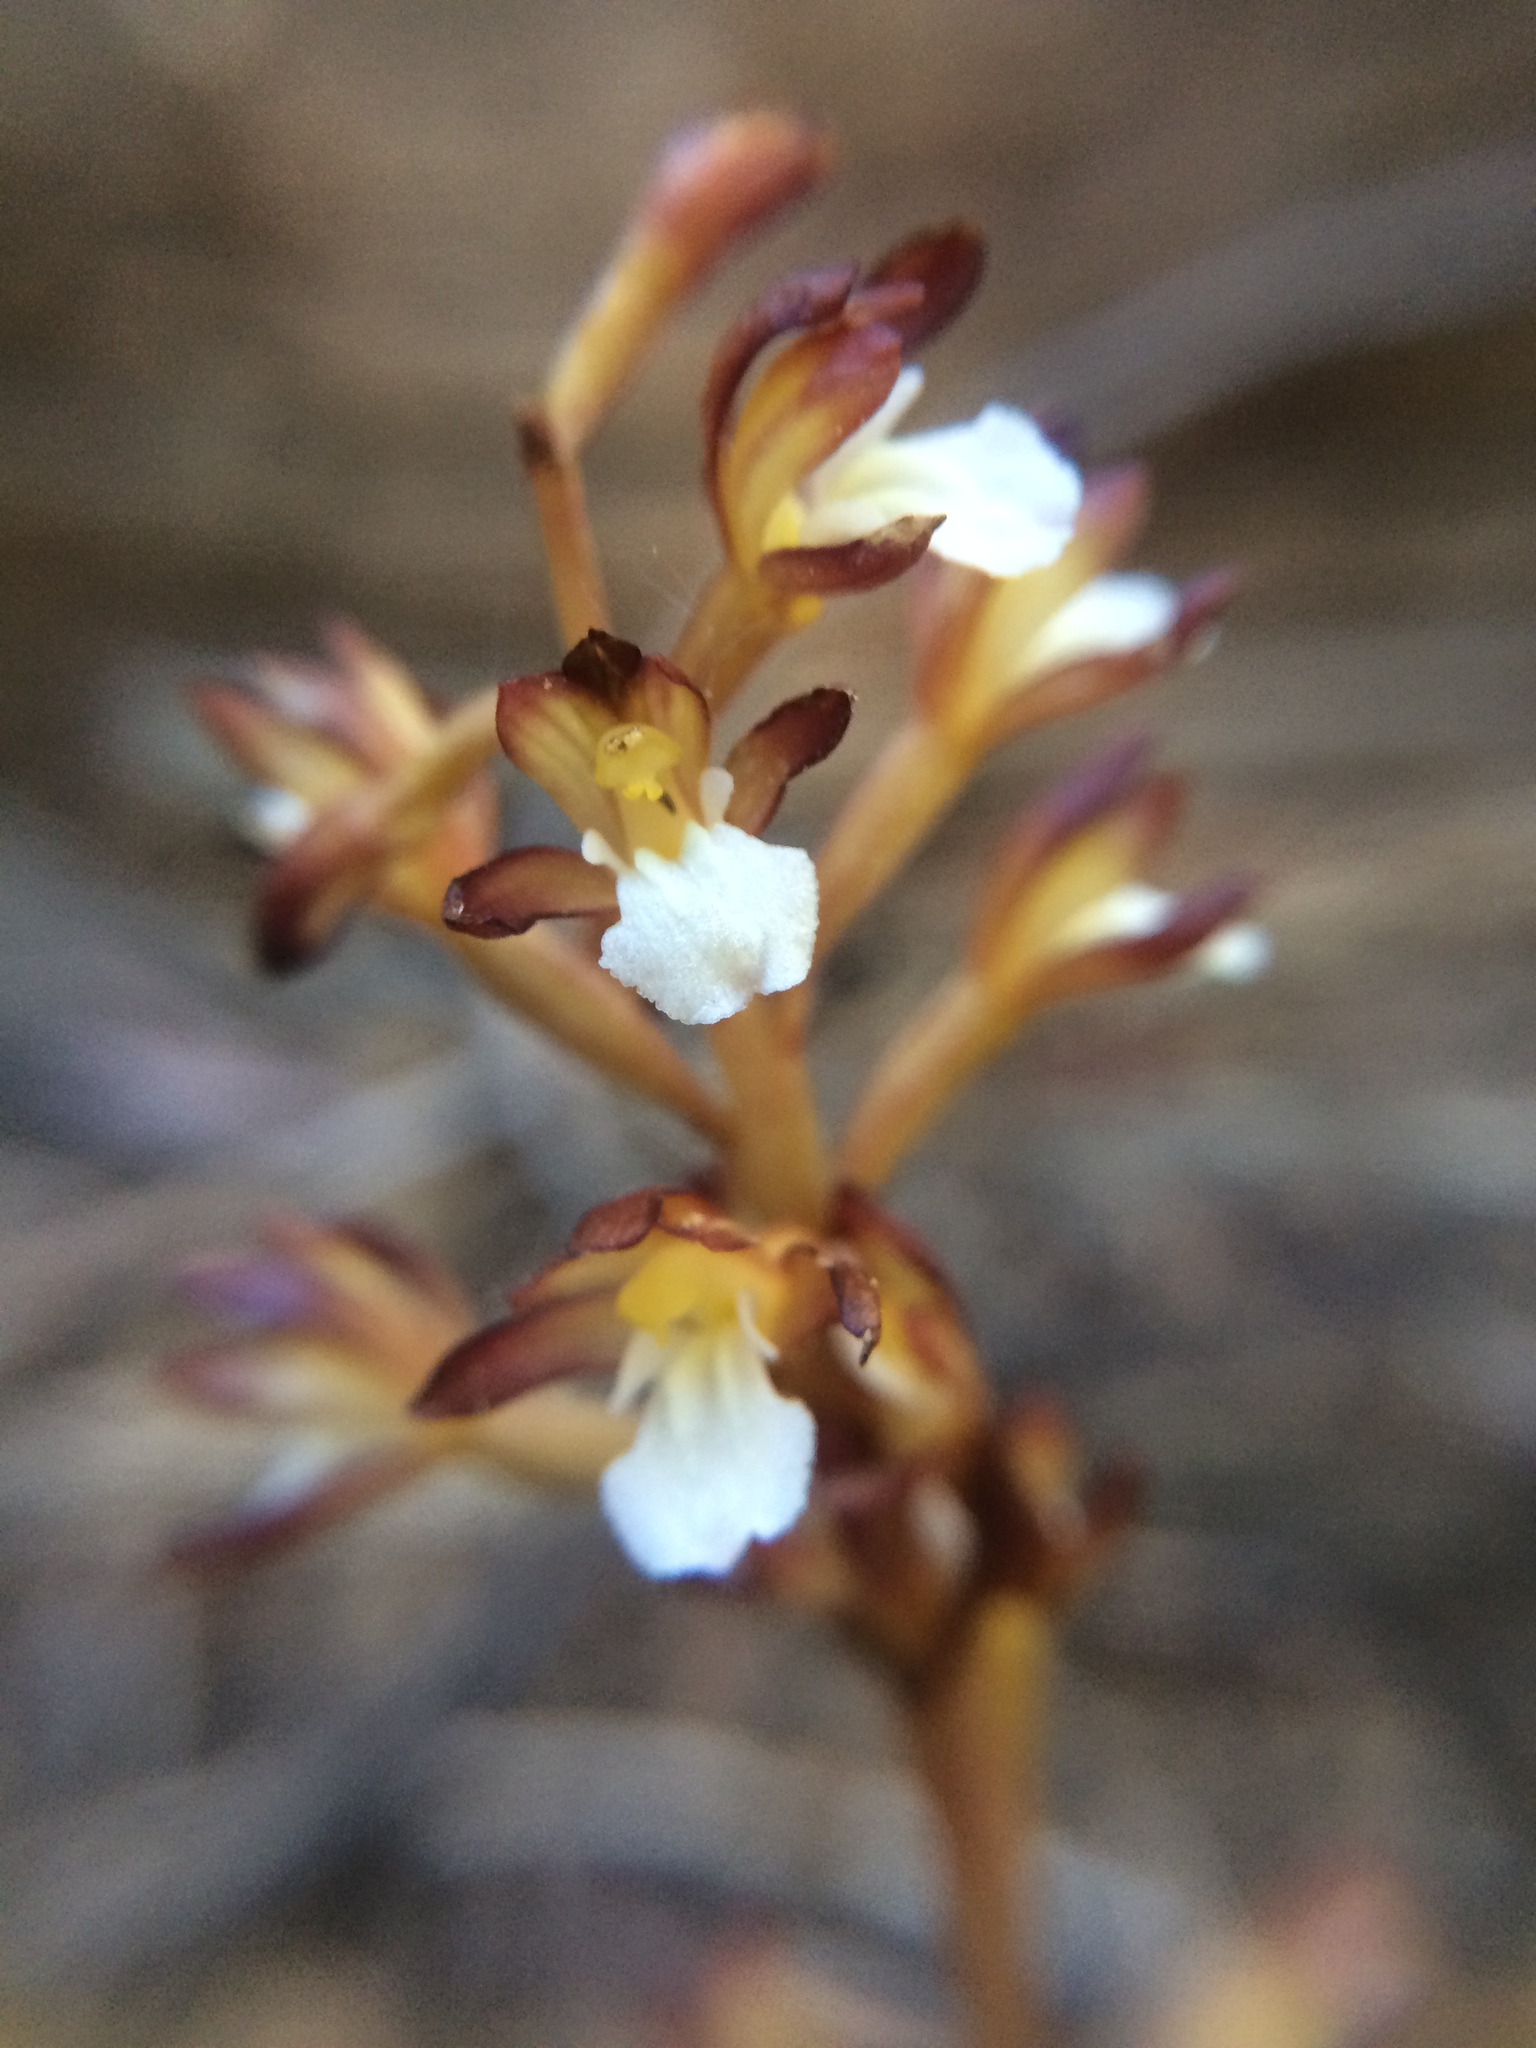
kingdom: Plantae
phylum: Tracheophyta
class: Liliopsida
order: Asparagales
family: Orchidaceae
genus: Corallorhiza
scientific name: Corallorhiza maculata
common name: Spotted coralroot
